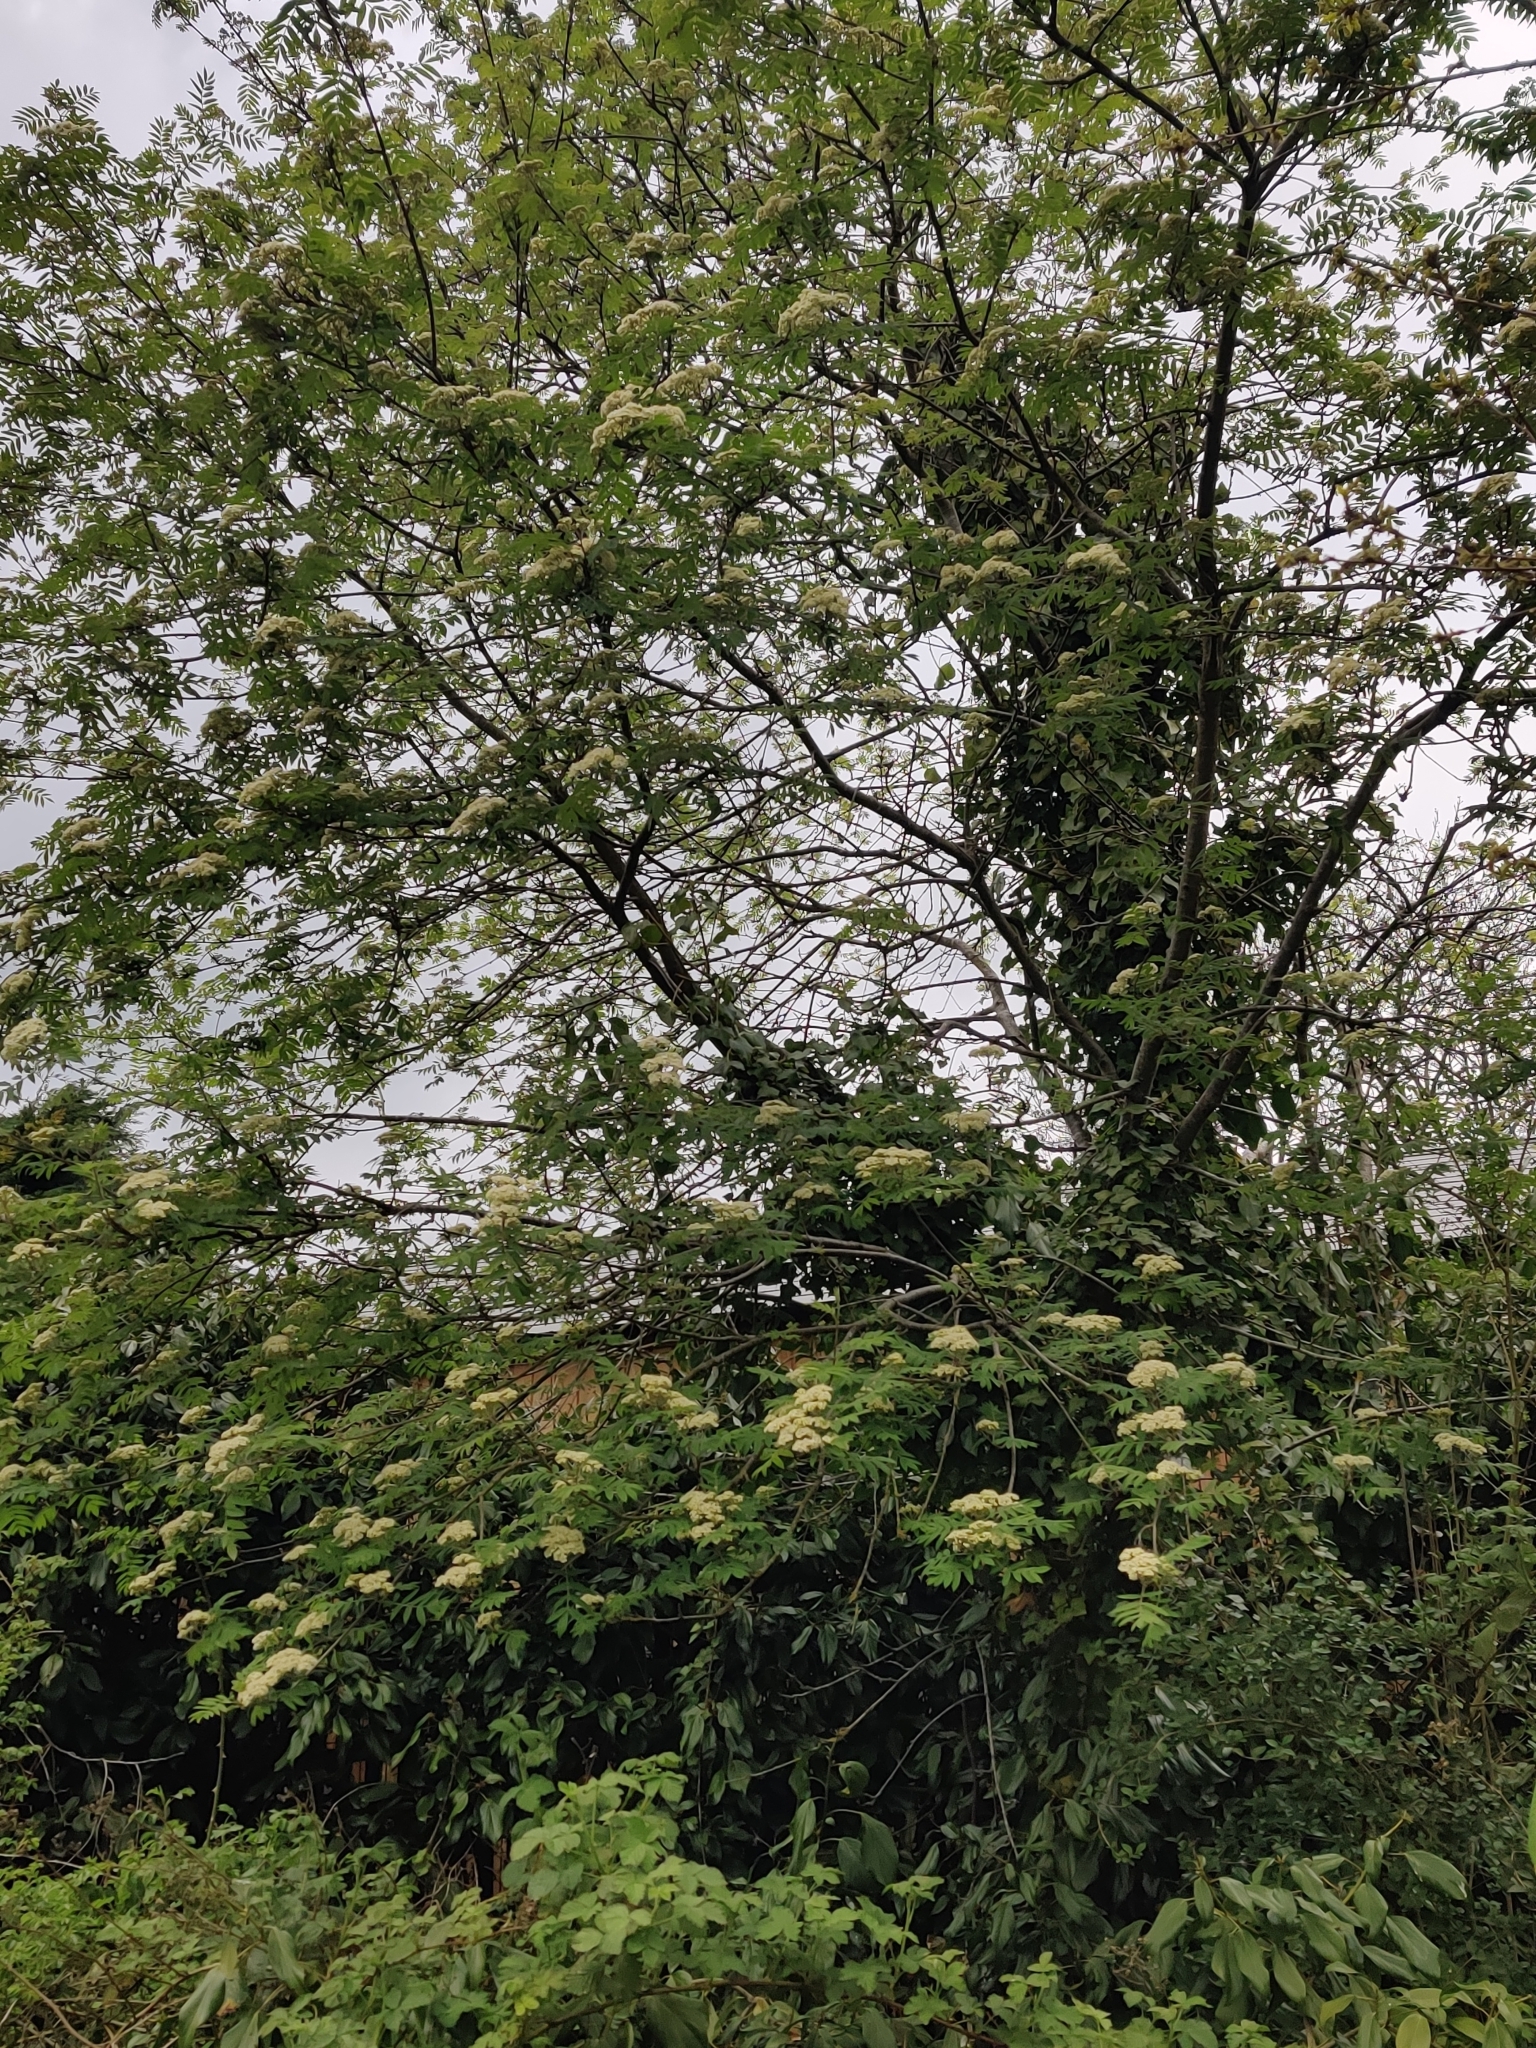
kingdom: Plantae
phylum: Tracheophyta
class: Magnoliopsida
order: Rosales
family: Rosaceae
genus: Sorbus
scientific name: Sorbus aucuparia
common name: Rowan
